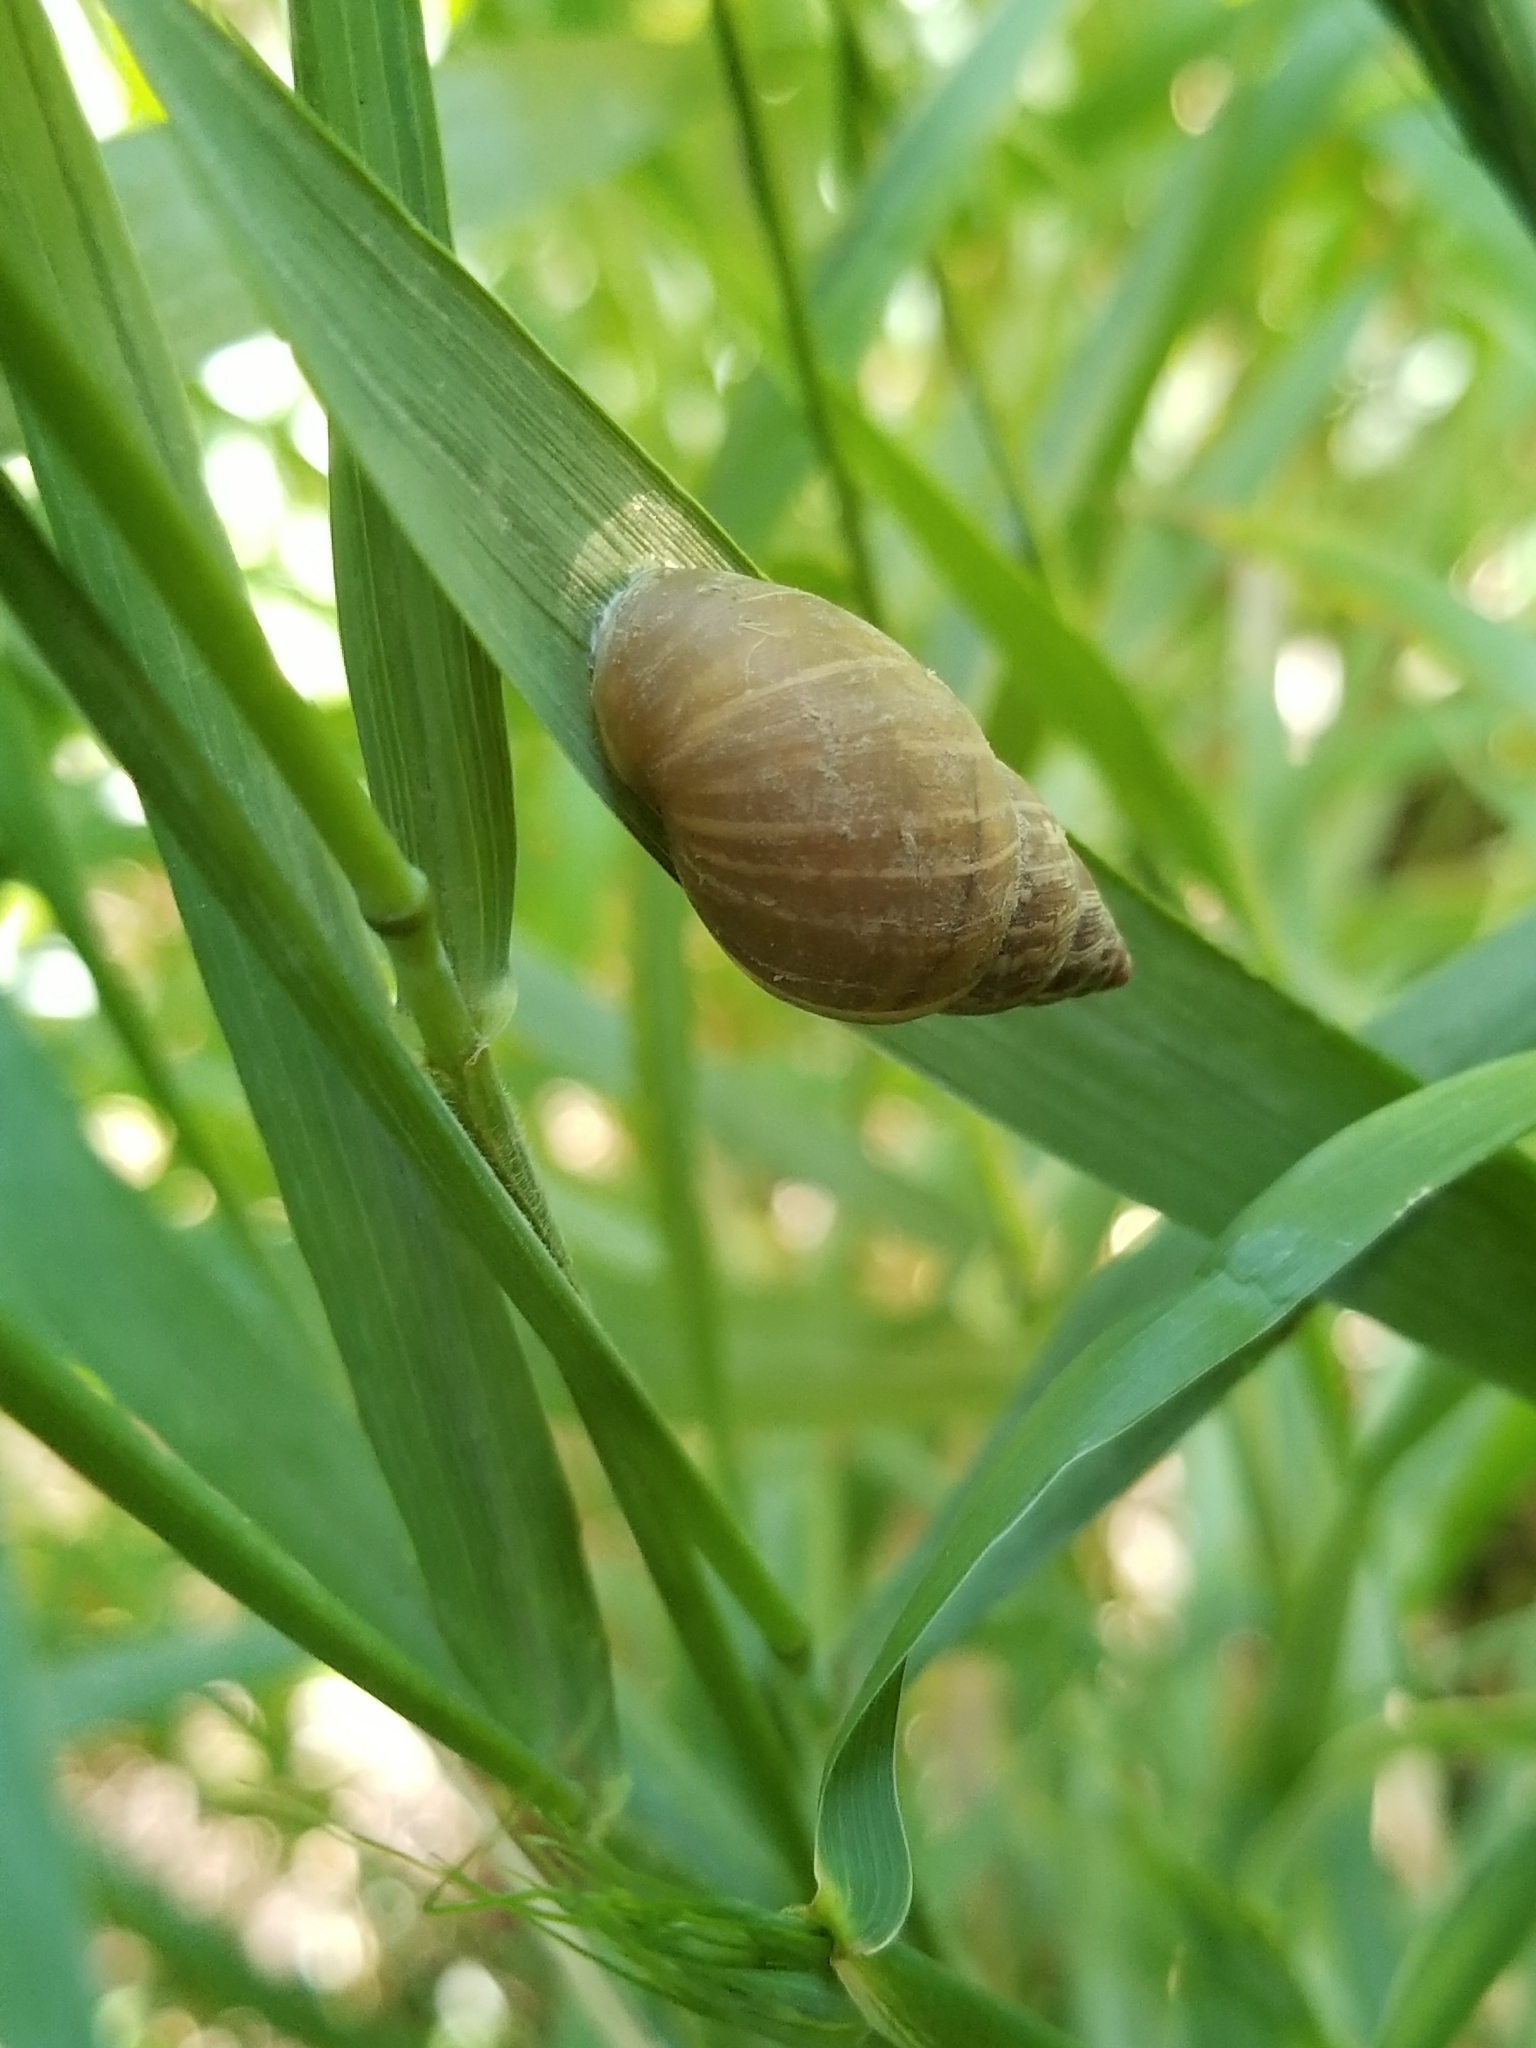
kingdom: Animalia
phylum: Mollusca
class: Gastropoda
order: Stylommatophora
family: Bulimulidae
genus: Rabdotus
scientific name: Rabdotus dealbatus
